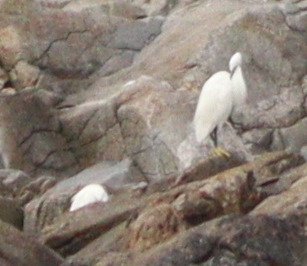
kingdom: Animalia
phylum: Chordata
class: Aves
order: Pelecaniformes
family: Ardeidae
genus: Egretta
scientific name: Egretta garzetta
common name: Little egret
